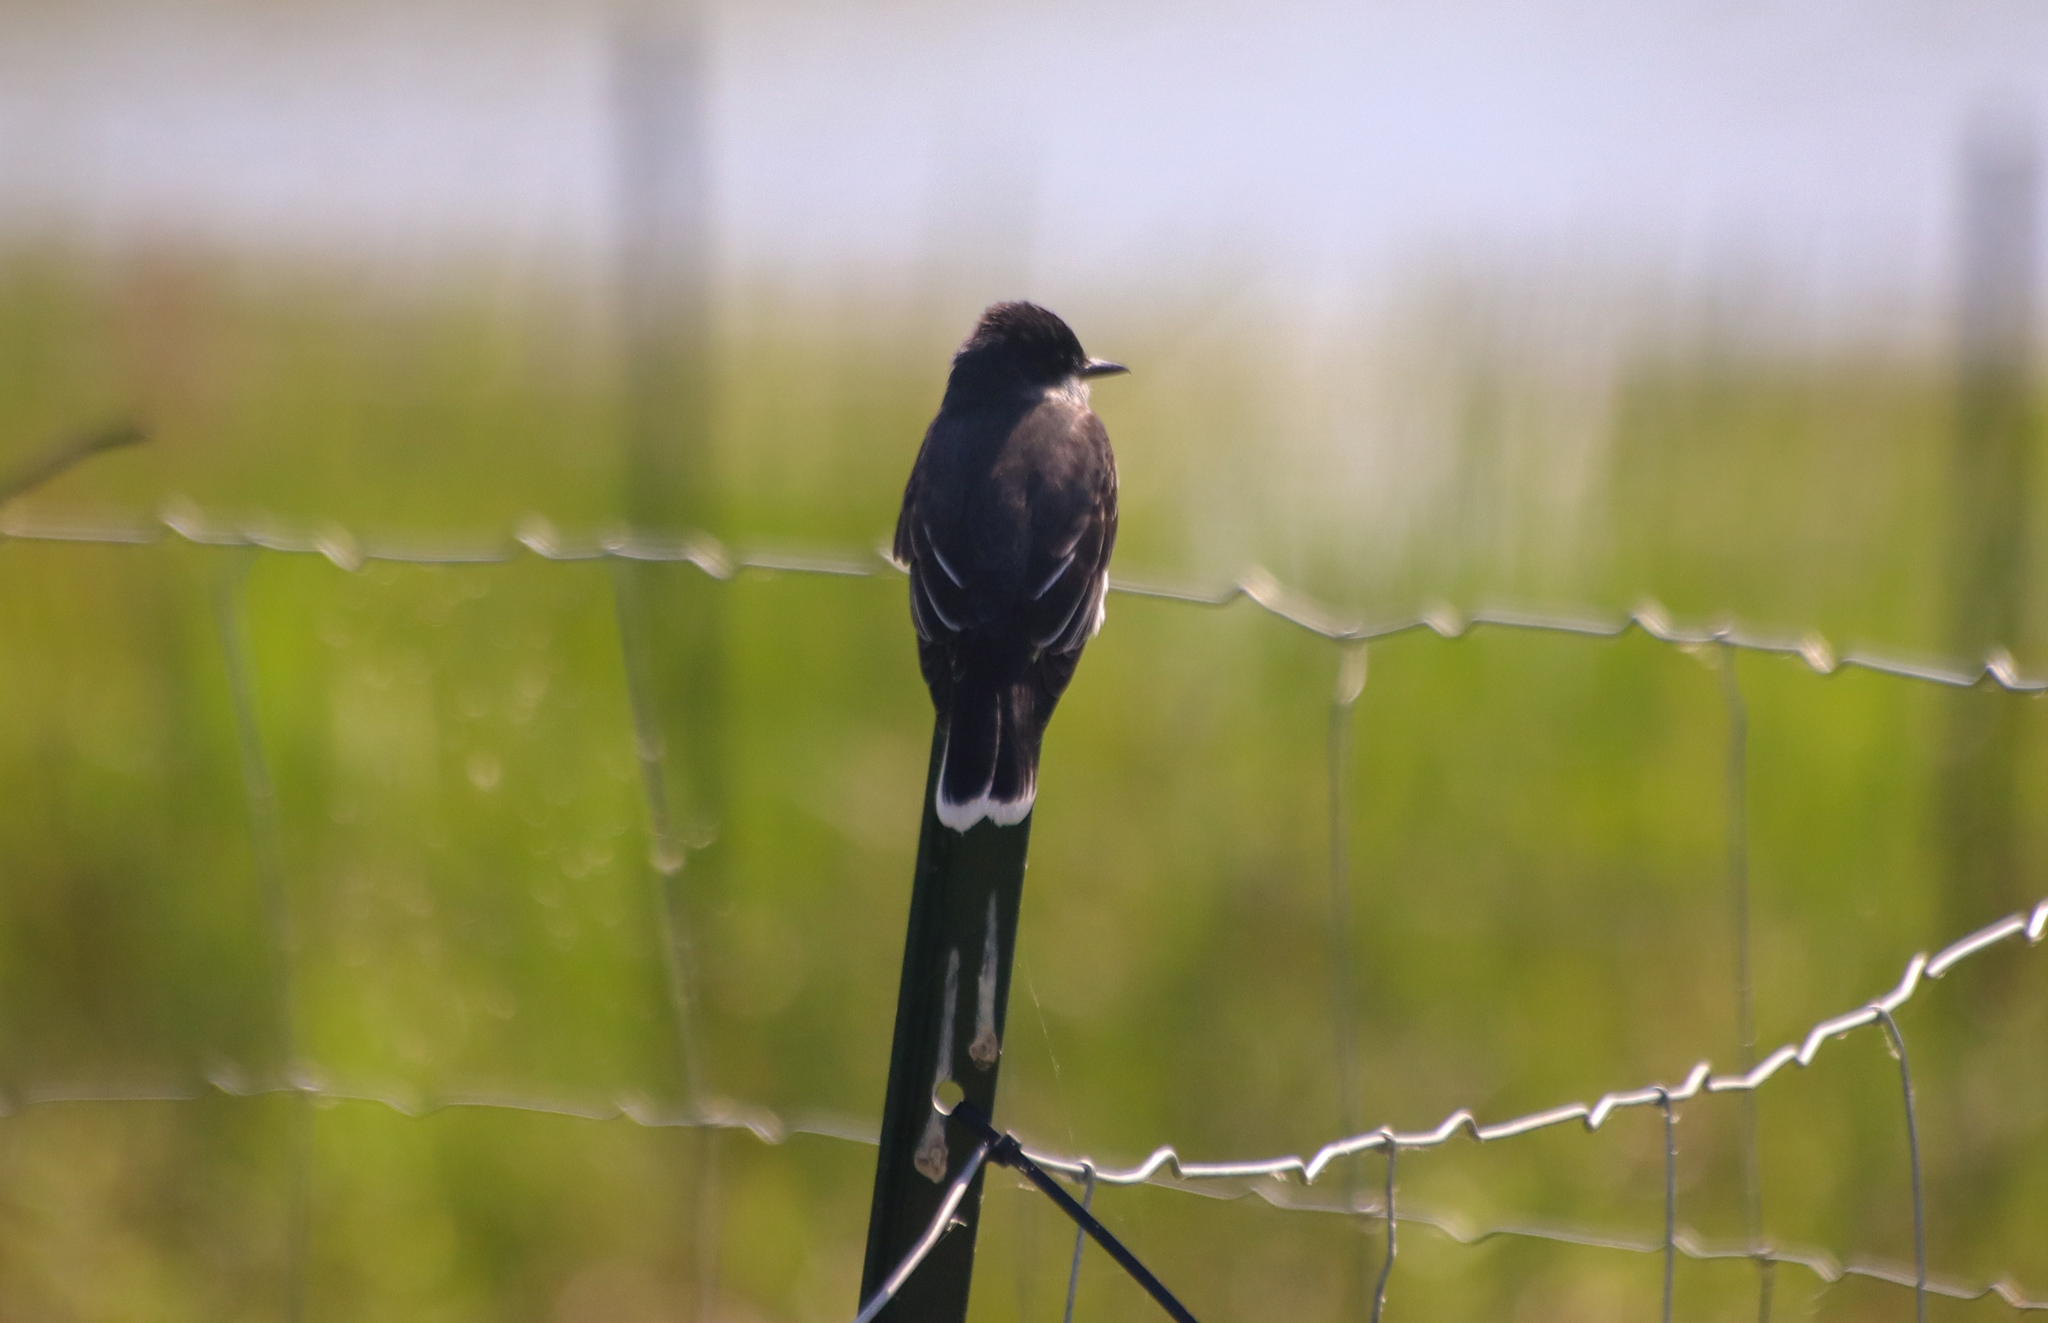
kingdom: Animalia
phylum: Chordata
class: Aves
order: Passeriformes
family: Tyrannidae
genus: Tyrannus
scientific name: Tyrannus tyrannus
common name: Eastern kingbird
